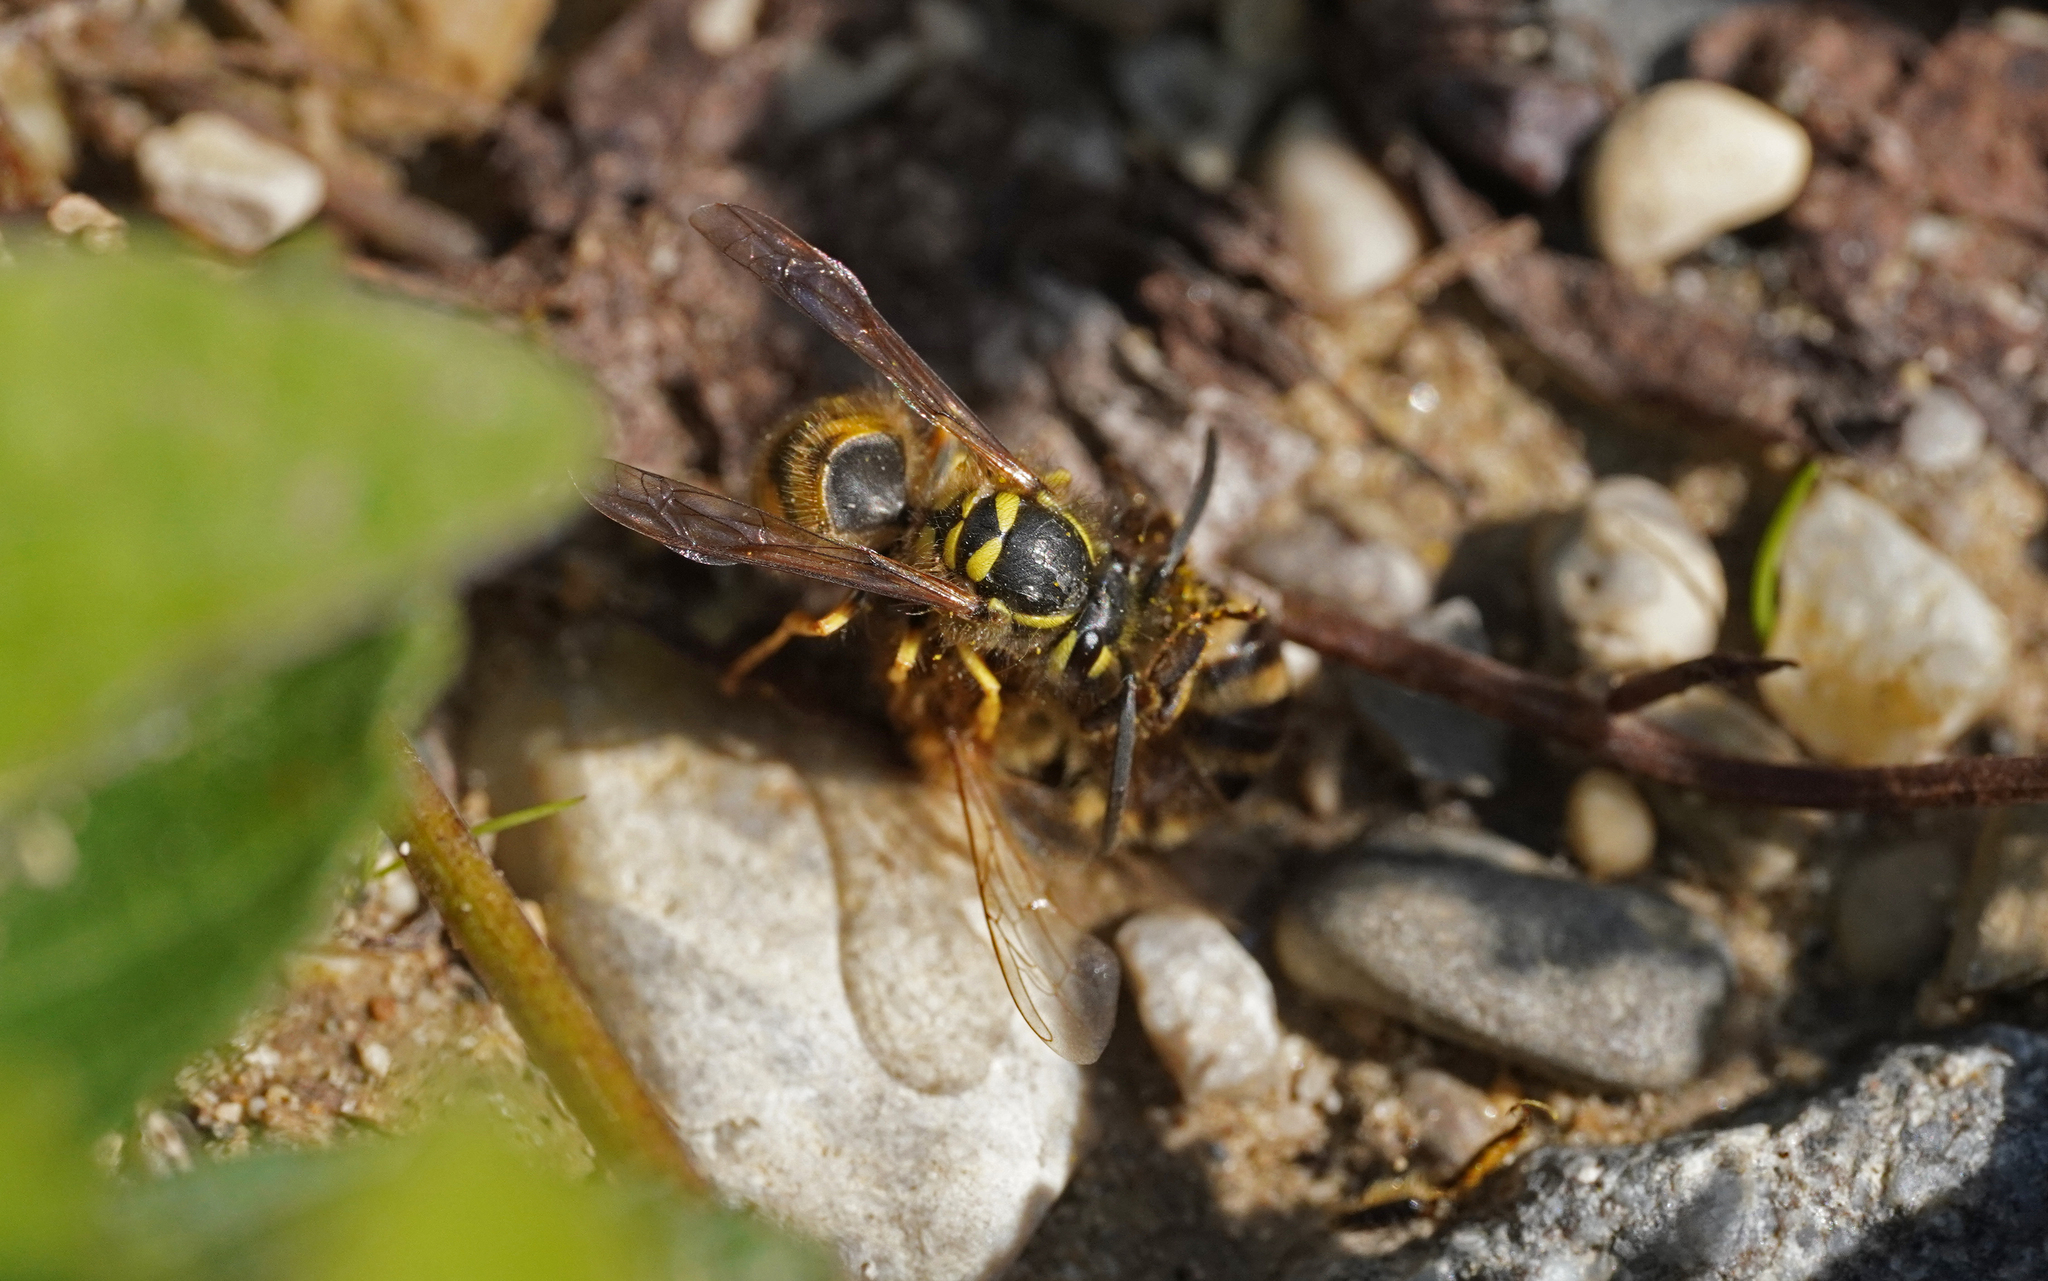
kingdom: Animalia
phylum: Arthropoda
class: Insecta
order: Hymenoptera
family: Vespidae
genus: Vespula
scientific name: Vespula vulgaris
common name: Common wasp
